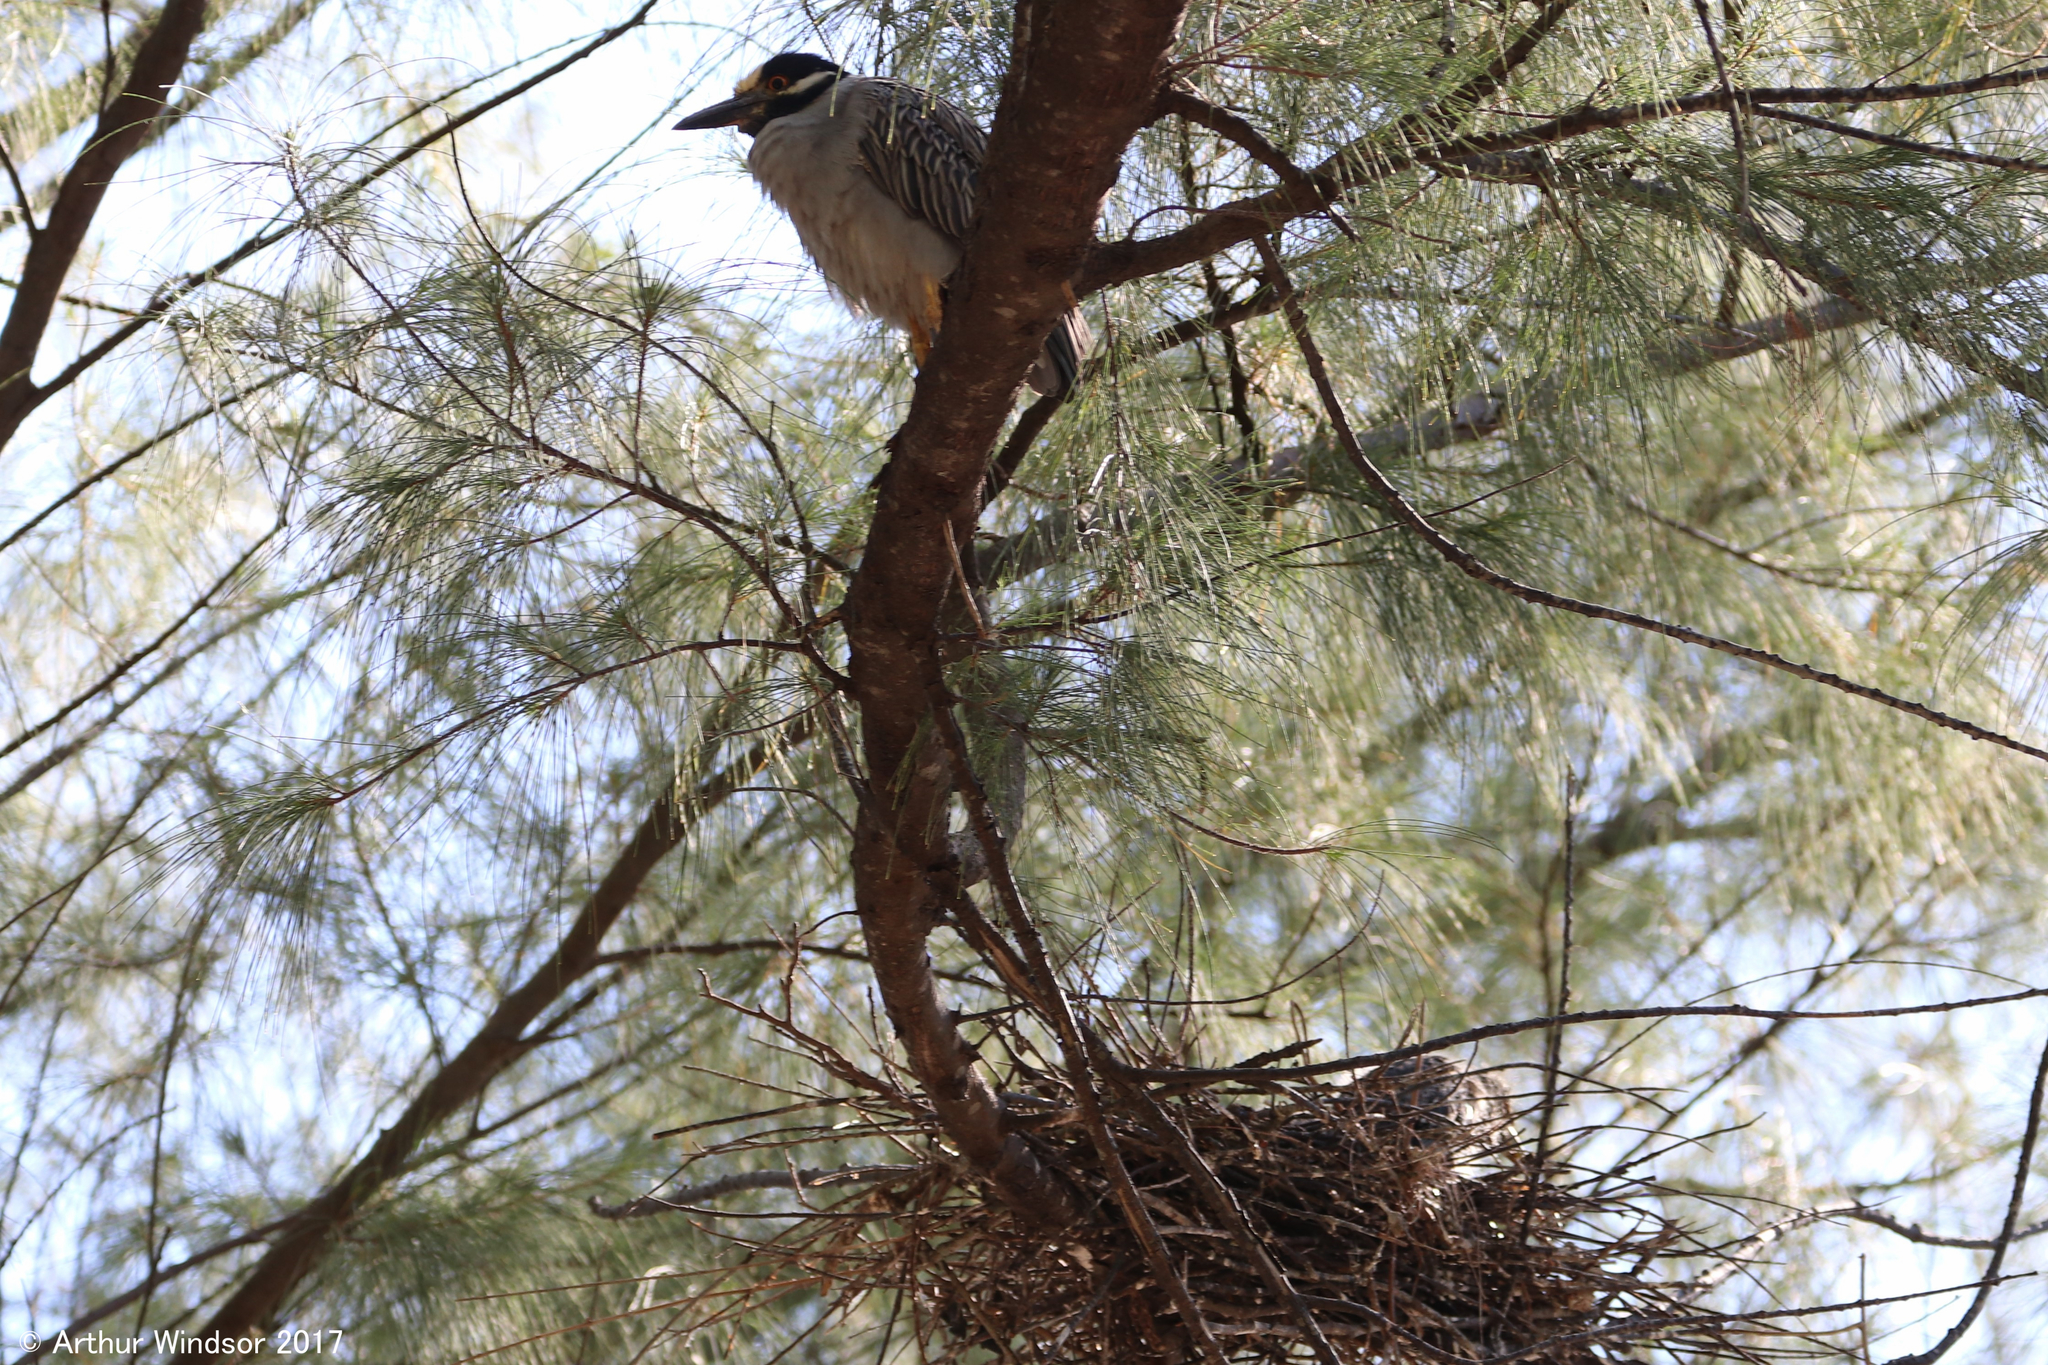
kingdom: Animalia
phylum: Chordata
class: Aves
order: Pelecaniformes
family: Ardeidae
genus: Nyctanassa
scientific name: Nyctanassa violacea
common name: Yellow-crowned night heron
